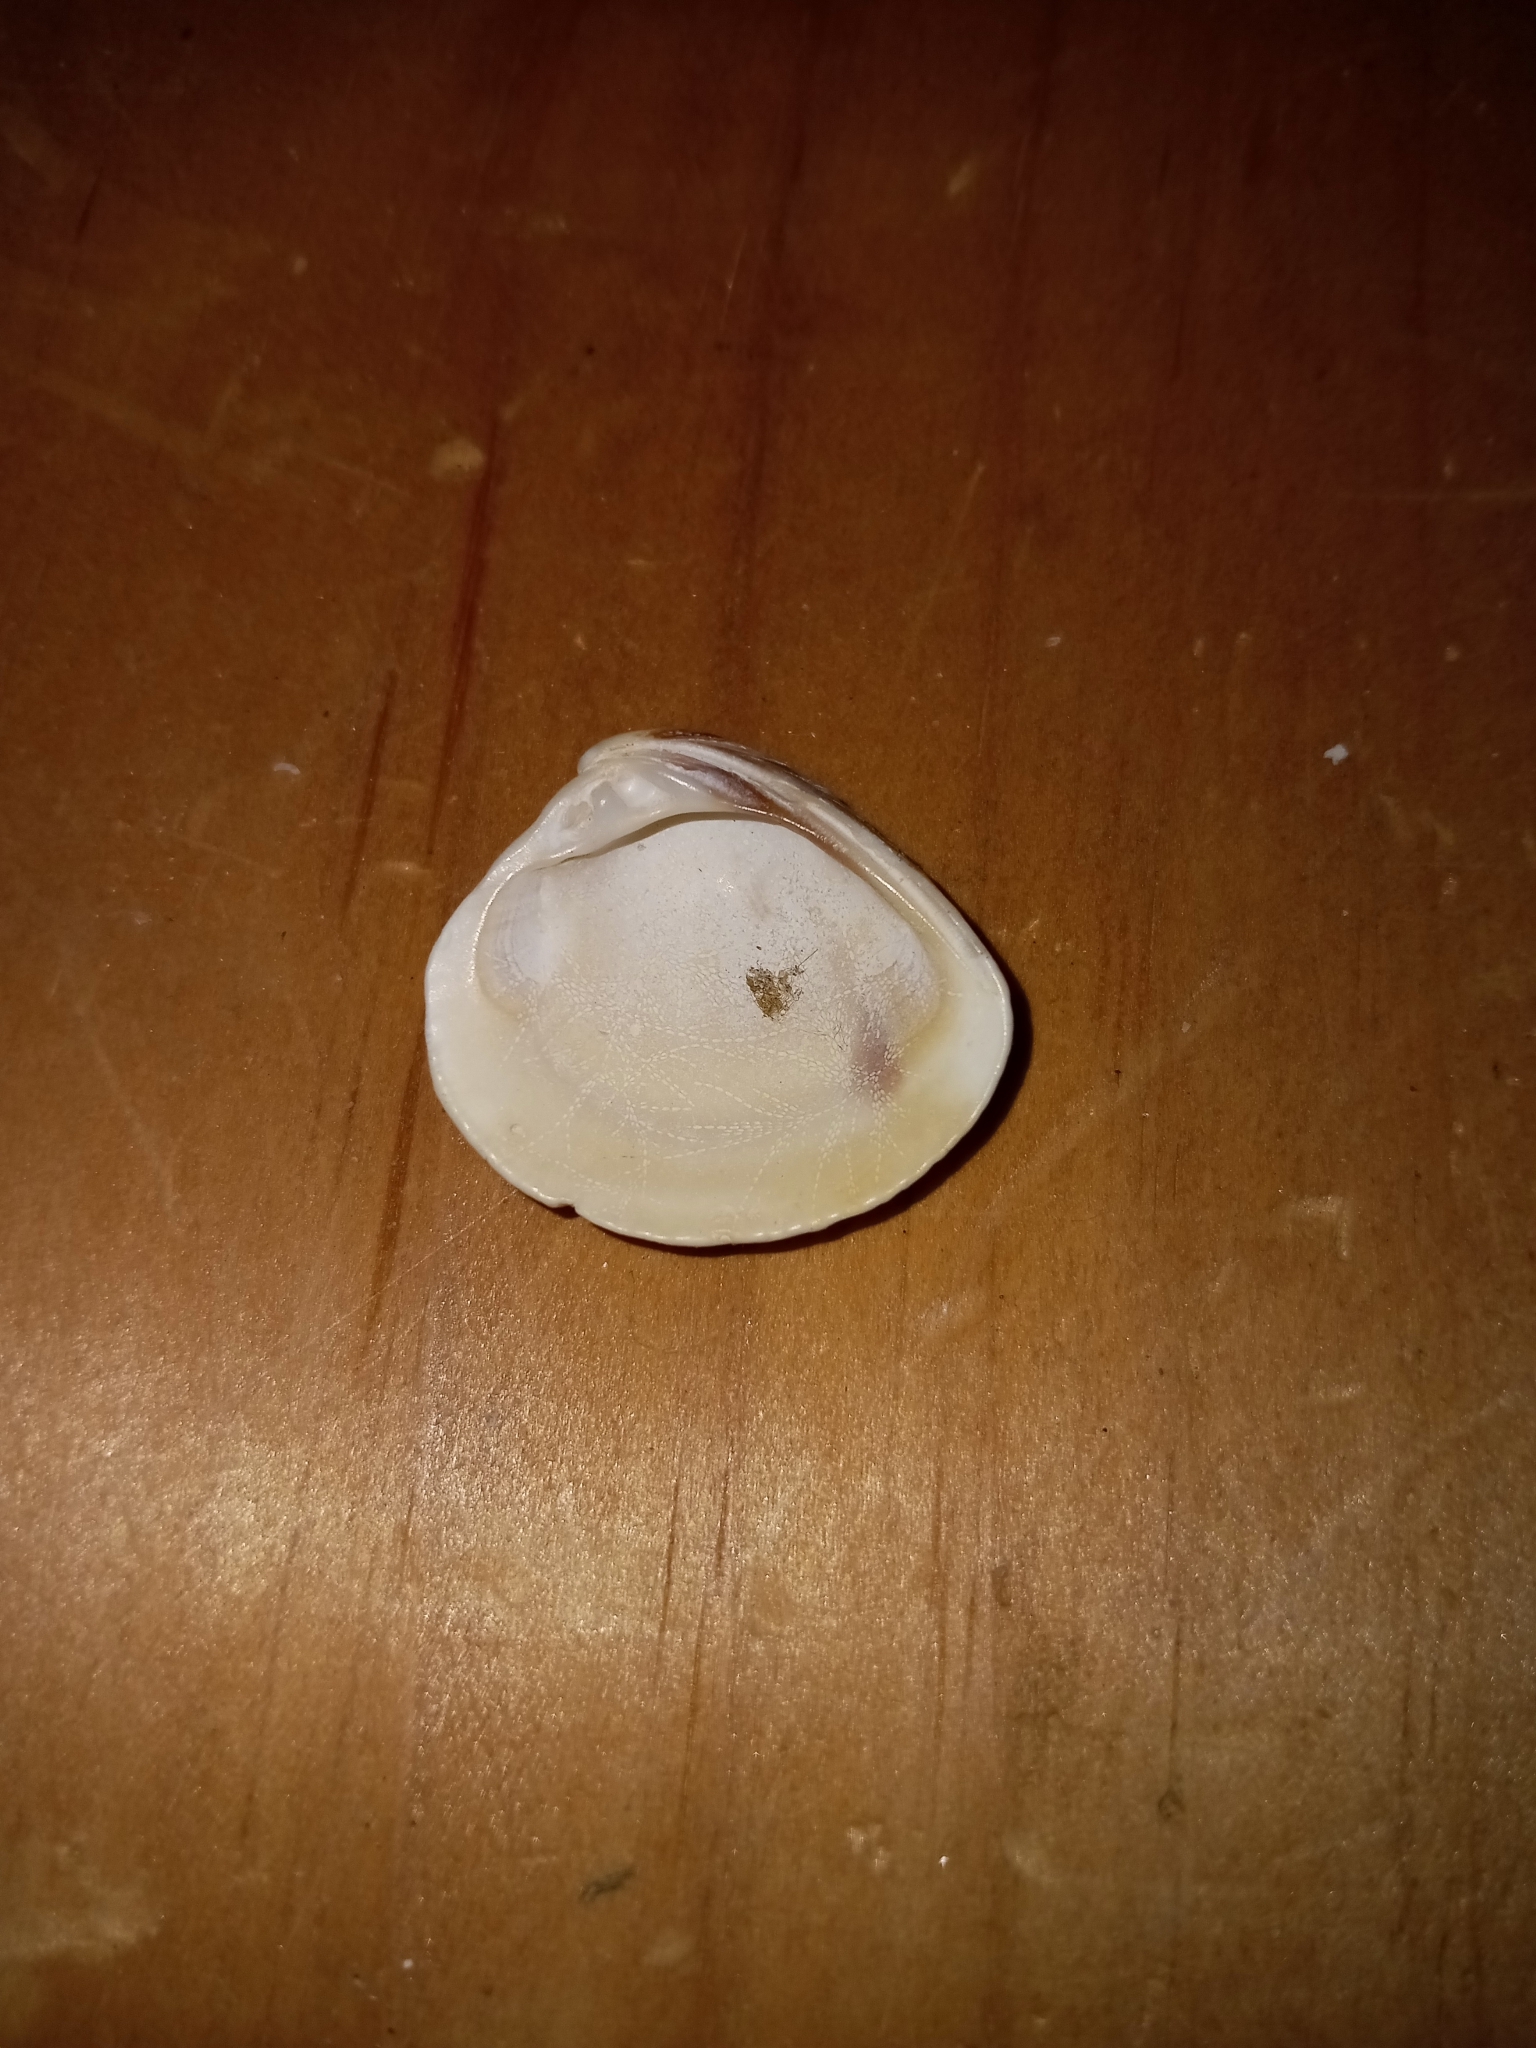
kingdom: Animalia
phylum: Mollusca
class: Bivalvia
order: Venerida
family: Veneridae
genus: Chione
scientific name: Chione elevata
